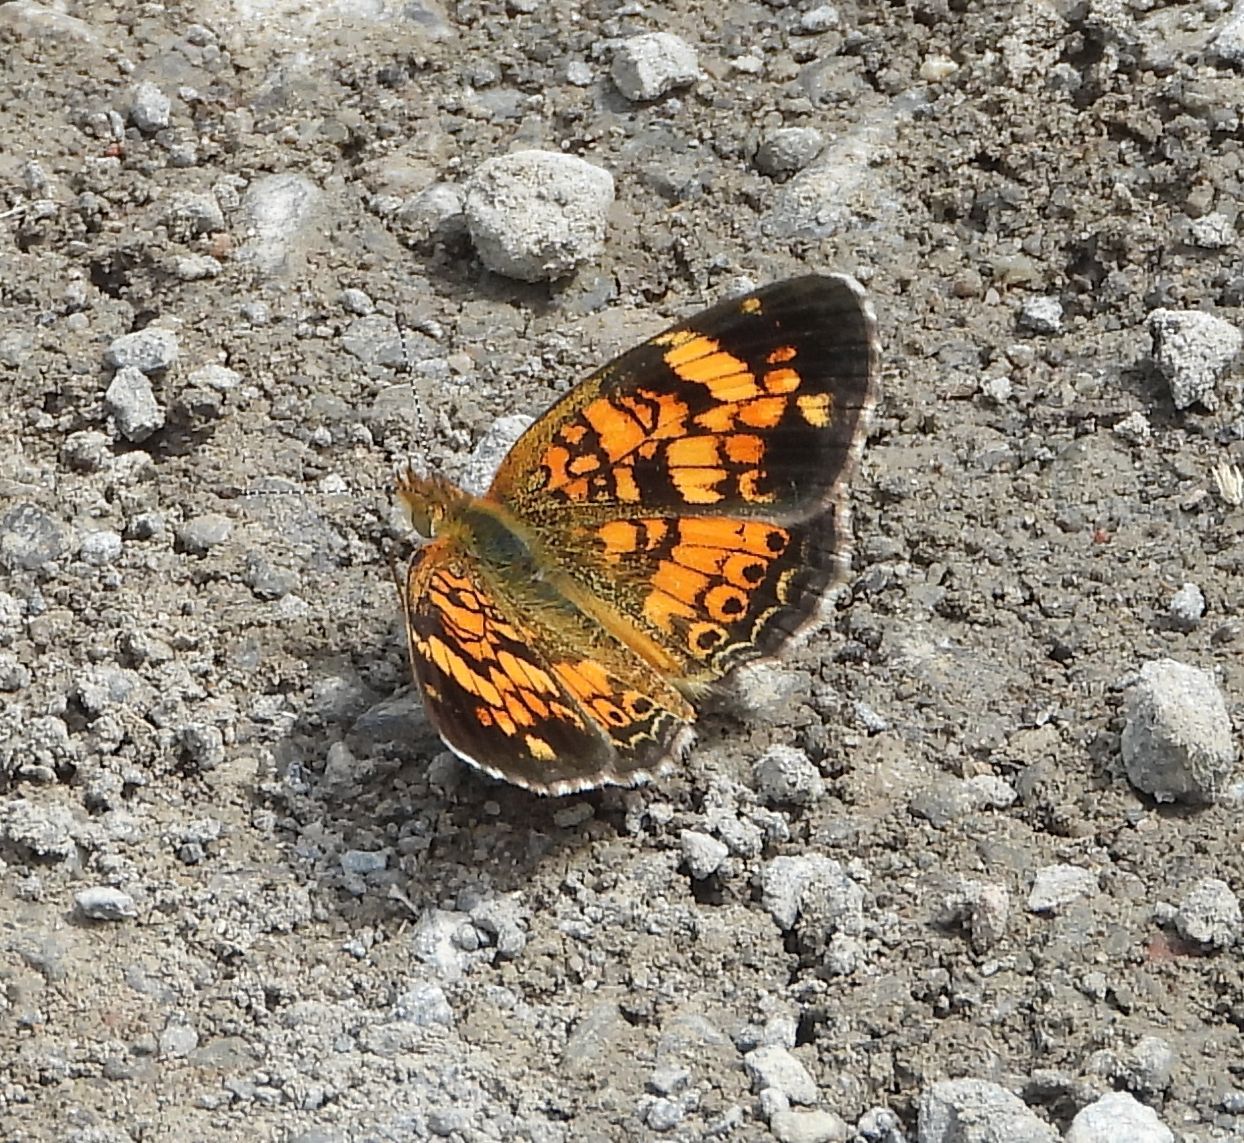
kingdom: Animalia
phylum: Arthropoda
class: Insecta
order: Lepidoptera
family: Nymphalidae
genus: Phyciodes
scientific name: Phyciodes tharos
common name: Pearl crescent
